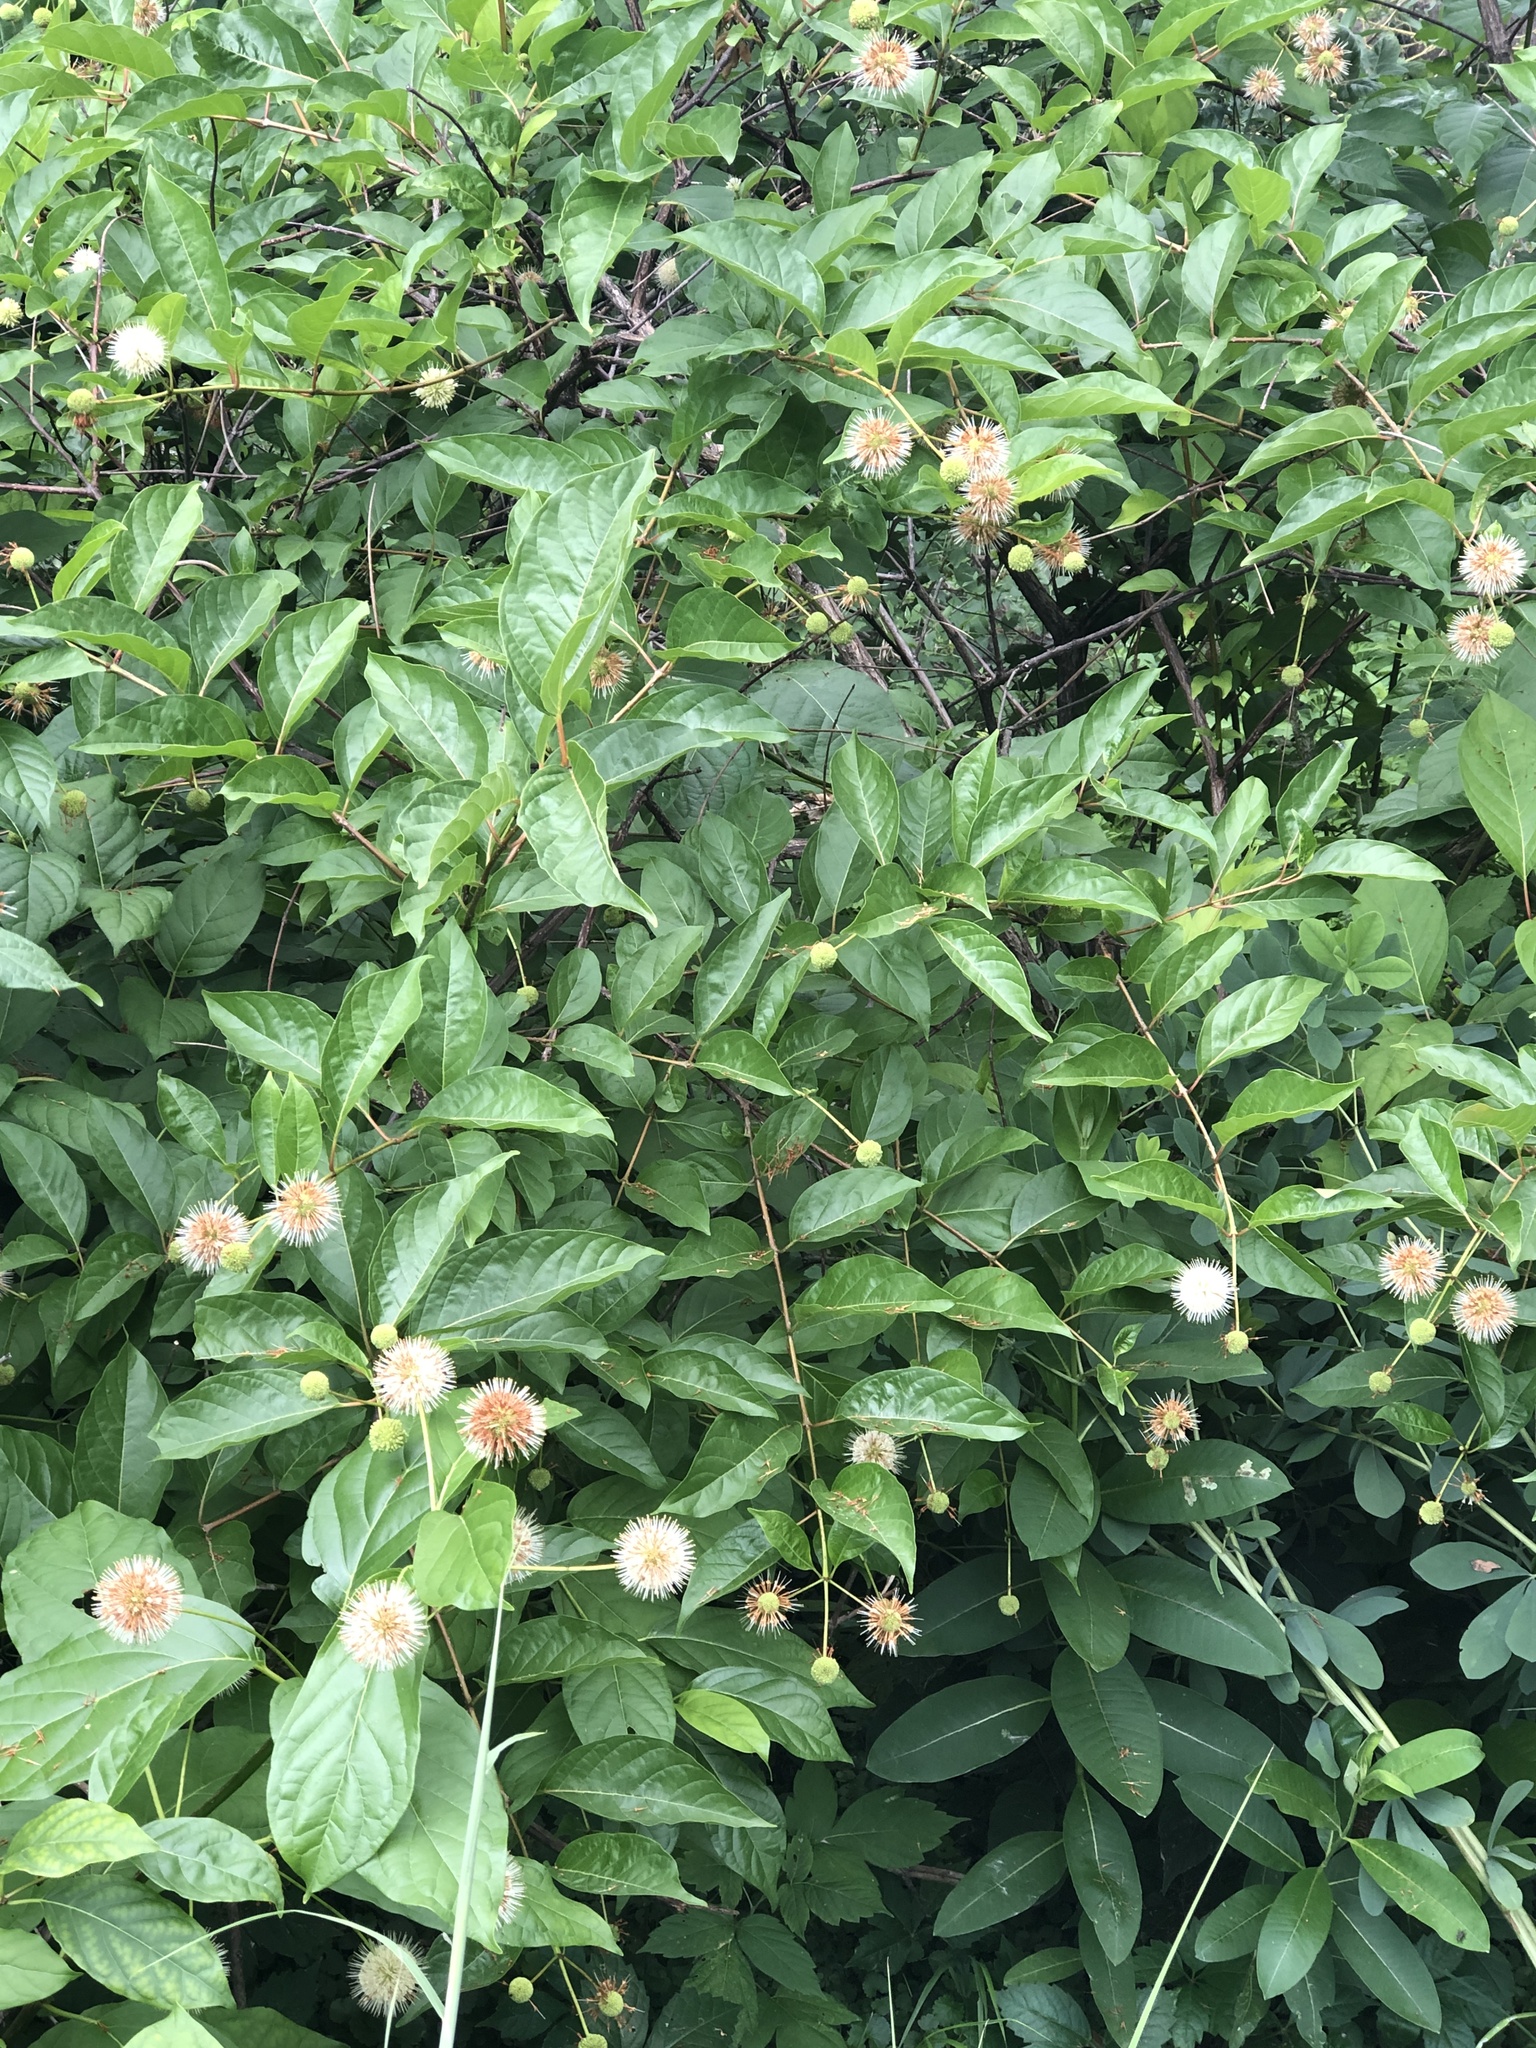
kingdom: Plantae
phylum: Tracheophyta
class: Magnoliopsida
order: Gentianales
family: Rubiaceae
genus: Cephalanthus
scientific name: Cephalanthus occidentalis
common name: Button-willow
